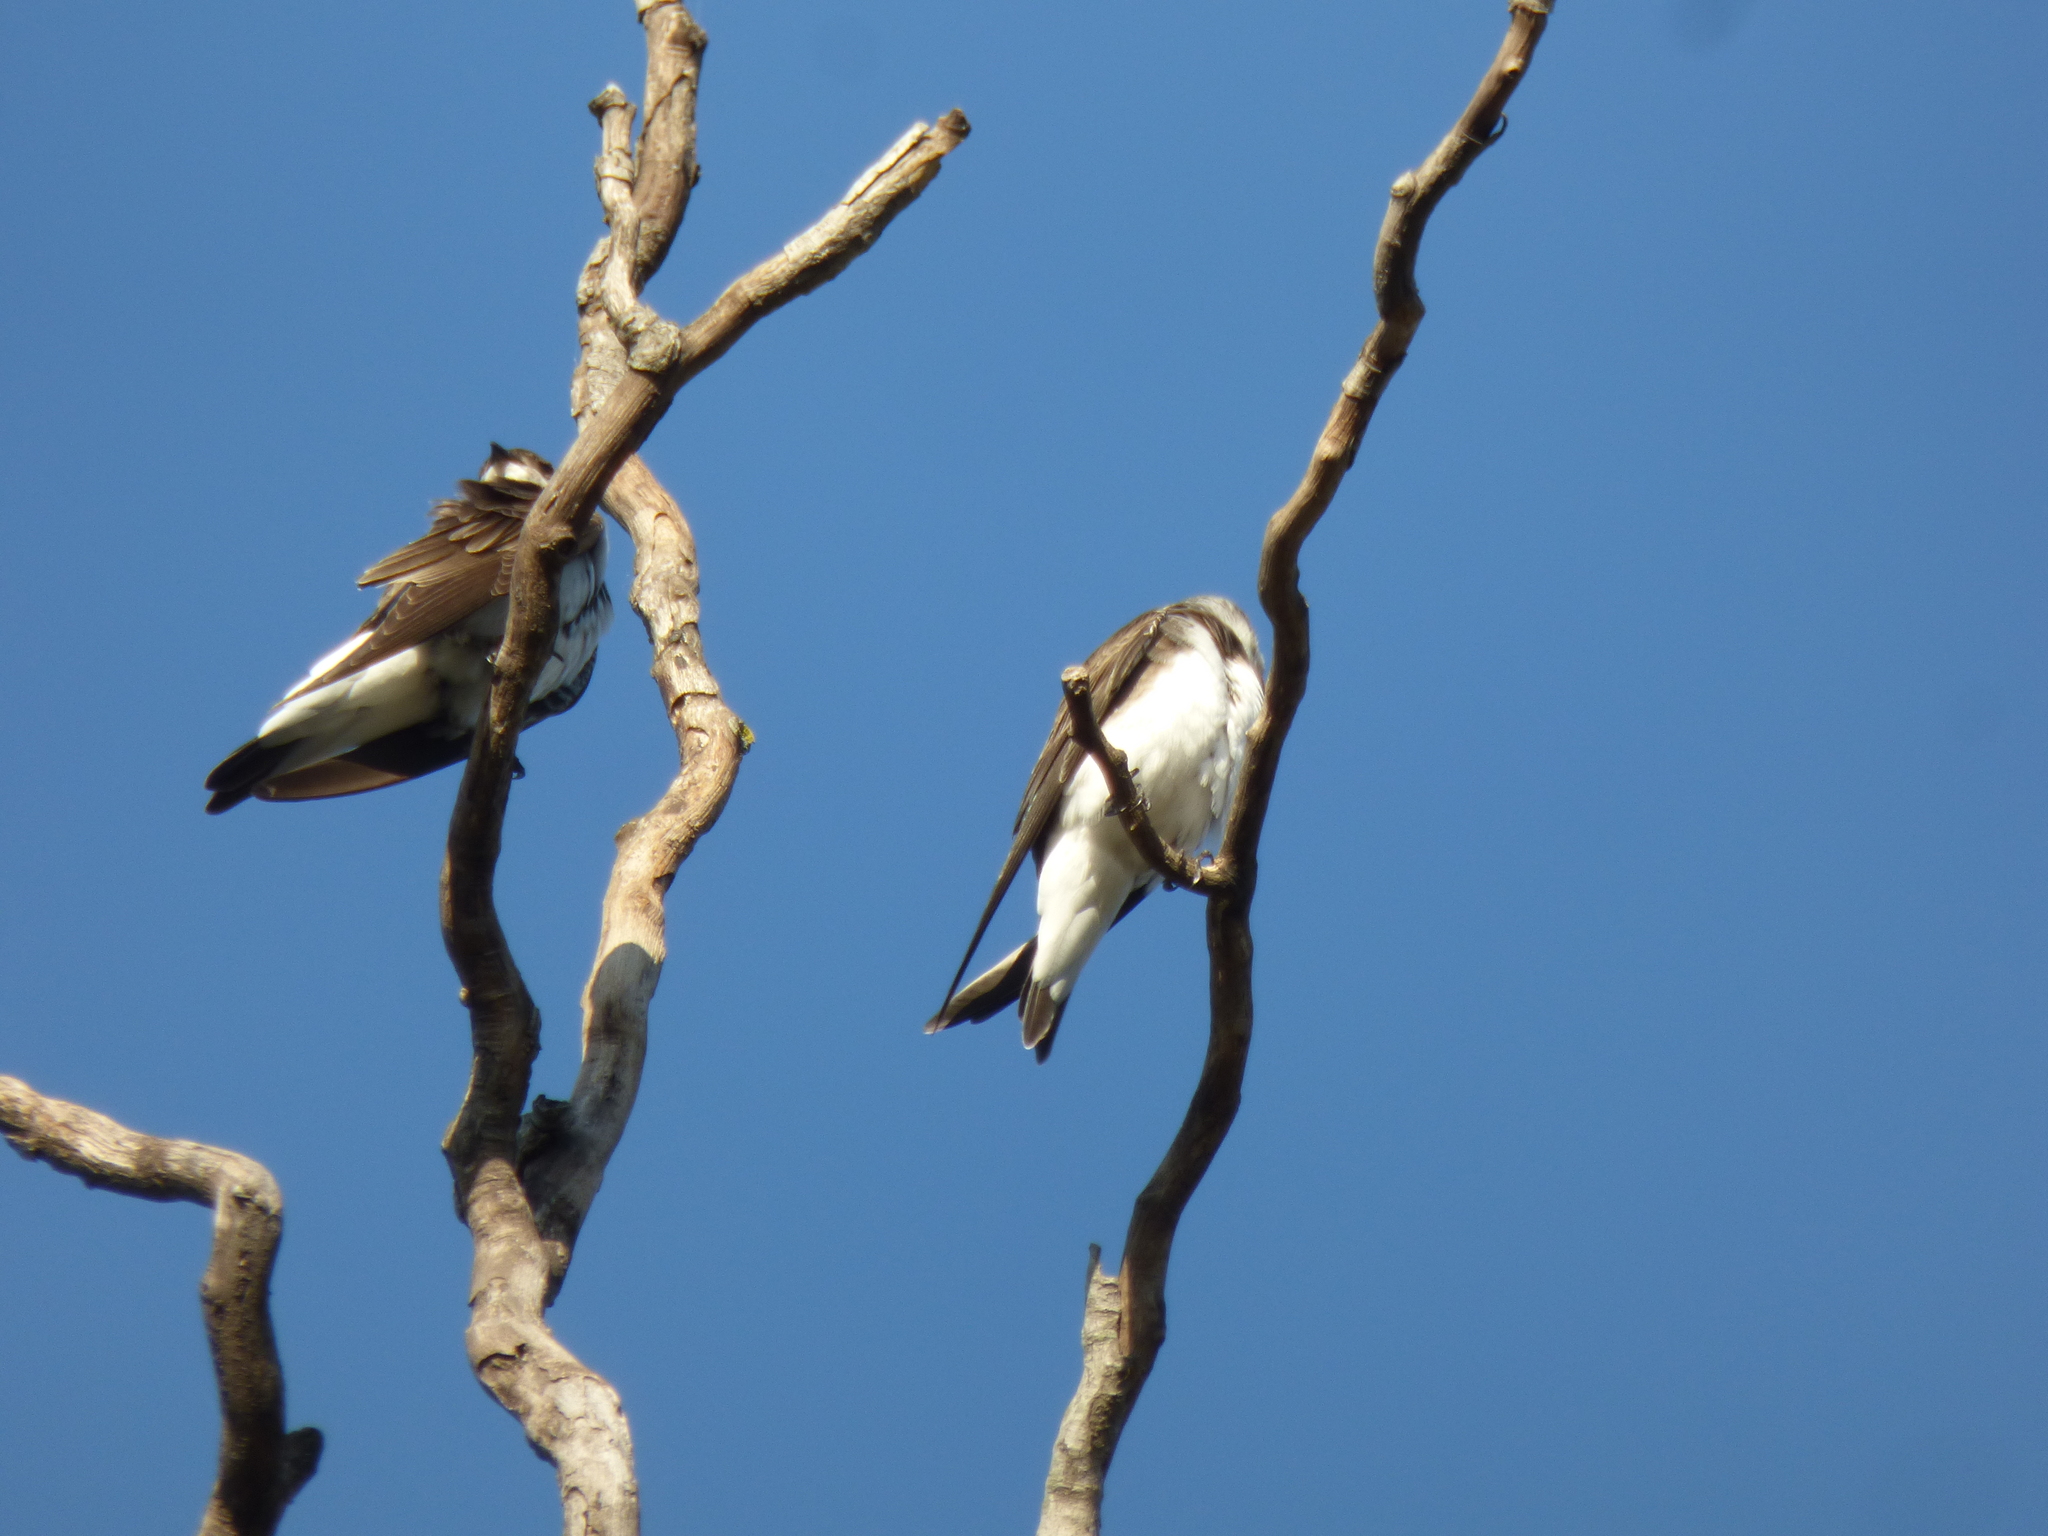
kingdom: Animalia
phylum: Chordata
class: Aves
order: Passeriformes
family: Hirundinidae
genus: Progne
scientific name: Progne tapera
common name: Brown-chested martin
